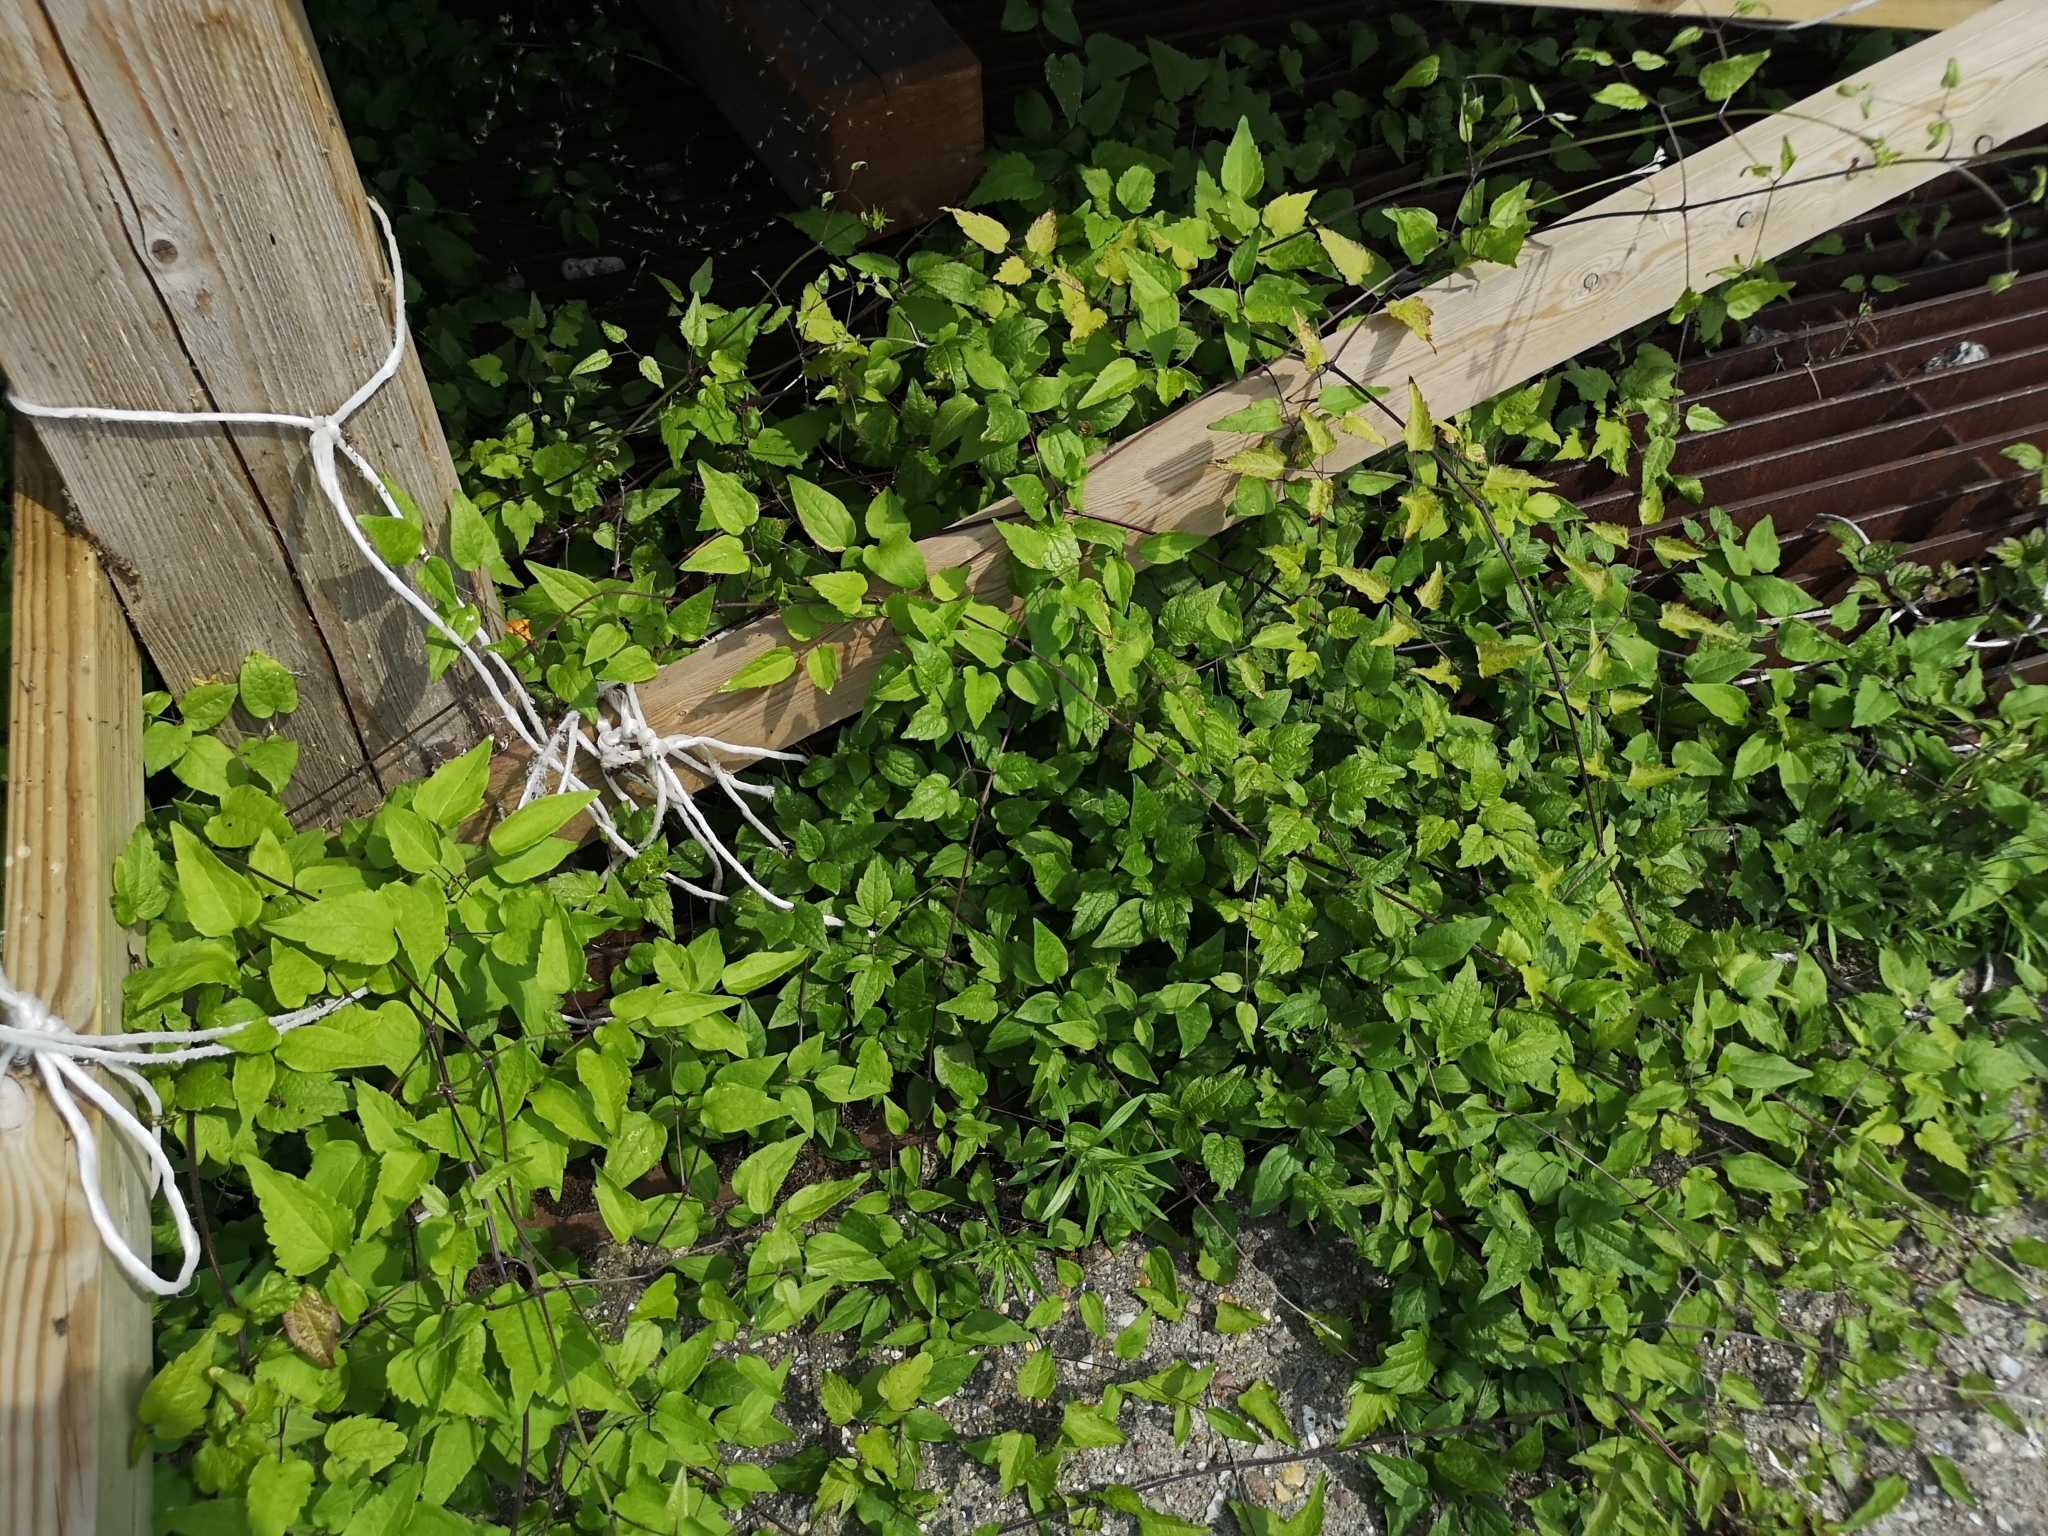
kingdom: Plantae
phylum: Tracheophyta
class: Magnoliopsida
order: Ranunculales
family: Ranunculaceae
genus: Clematis
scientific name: Clematis vitalba
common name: Evergreen clematis
